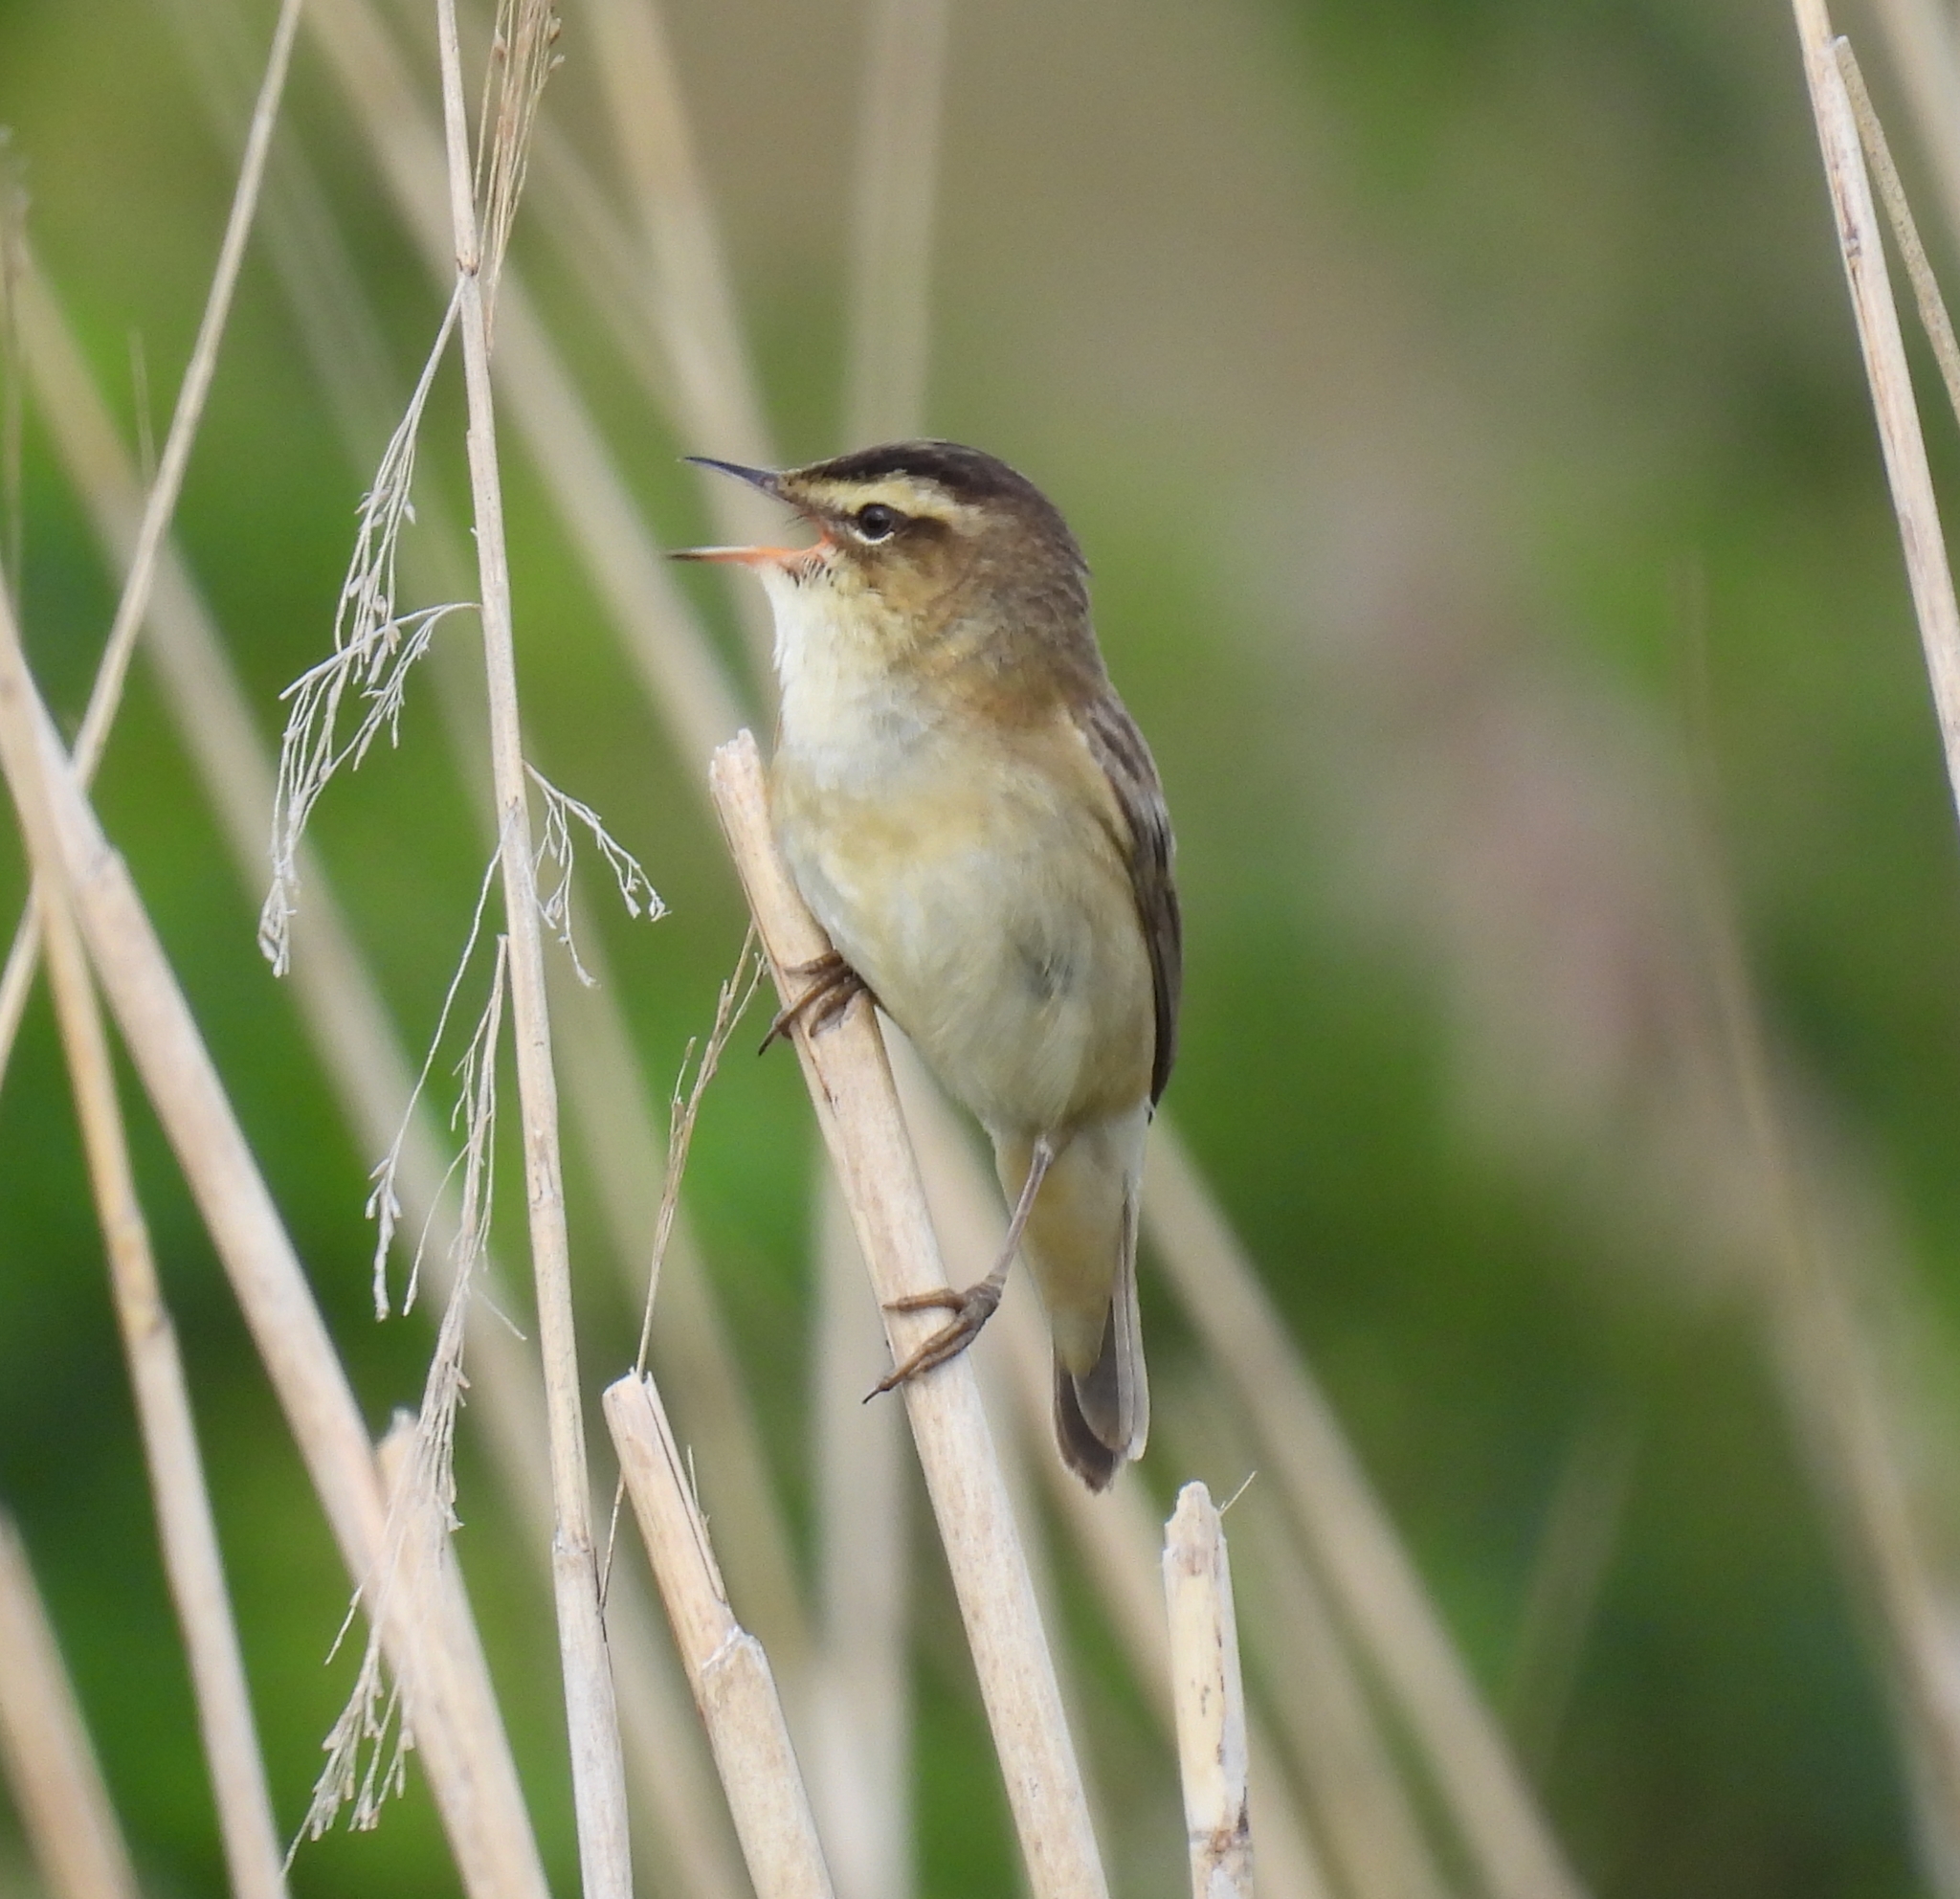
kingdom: Animalia
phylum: Chordata
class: Aves
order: Passeriformes
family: Acrocephalidae
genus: Acrocephalus
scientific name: Acrocephalus schoenobaenus
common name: Sedge warbler
